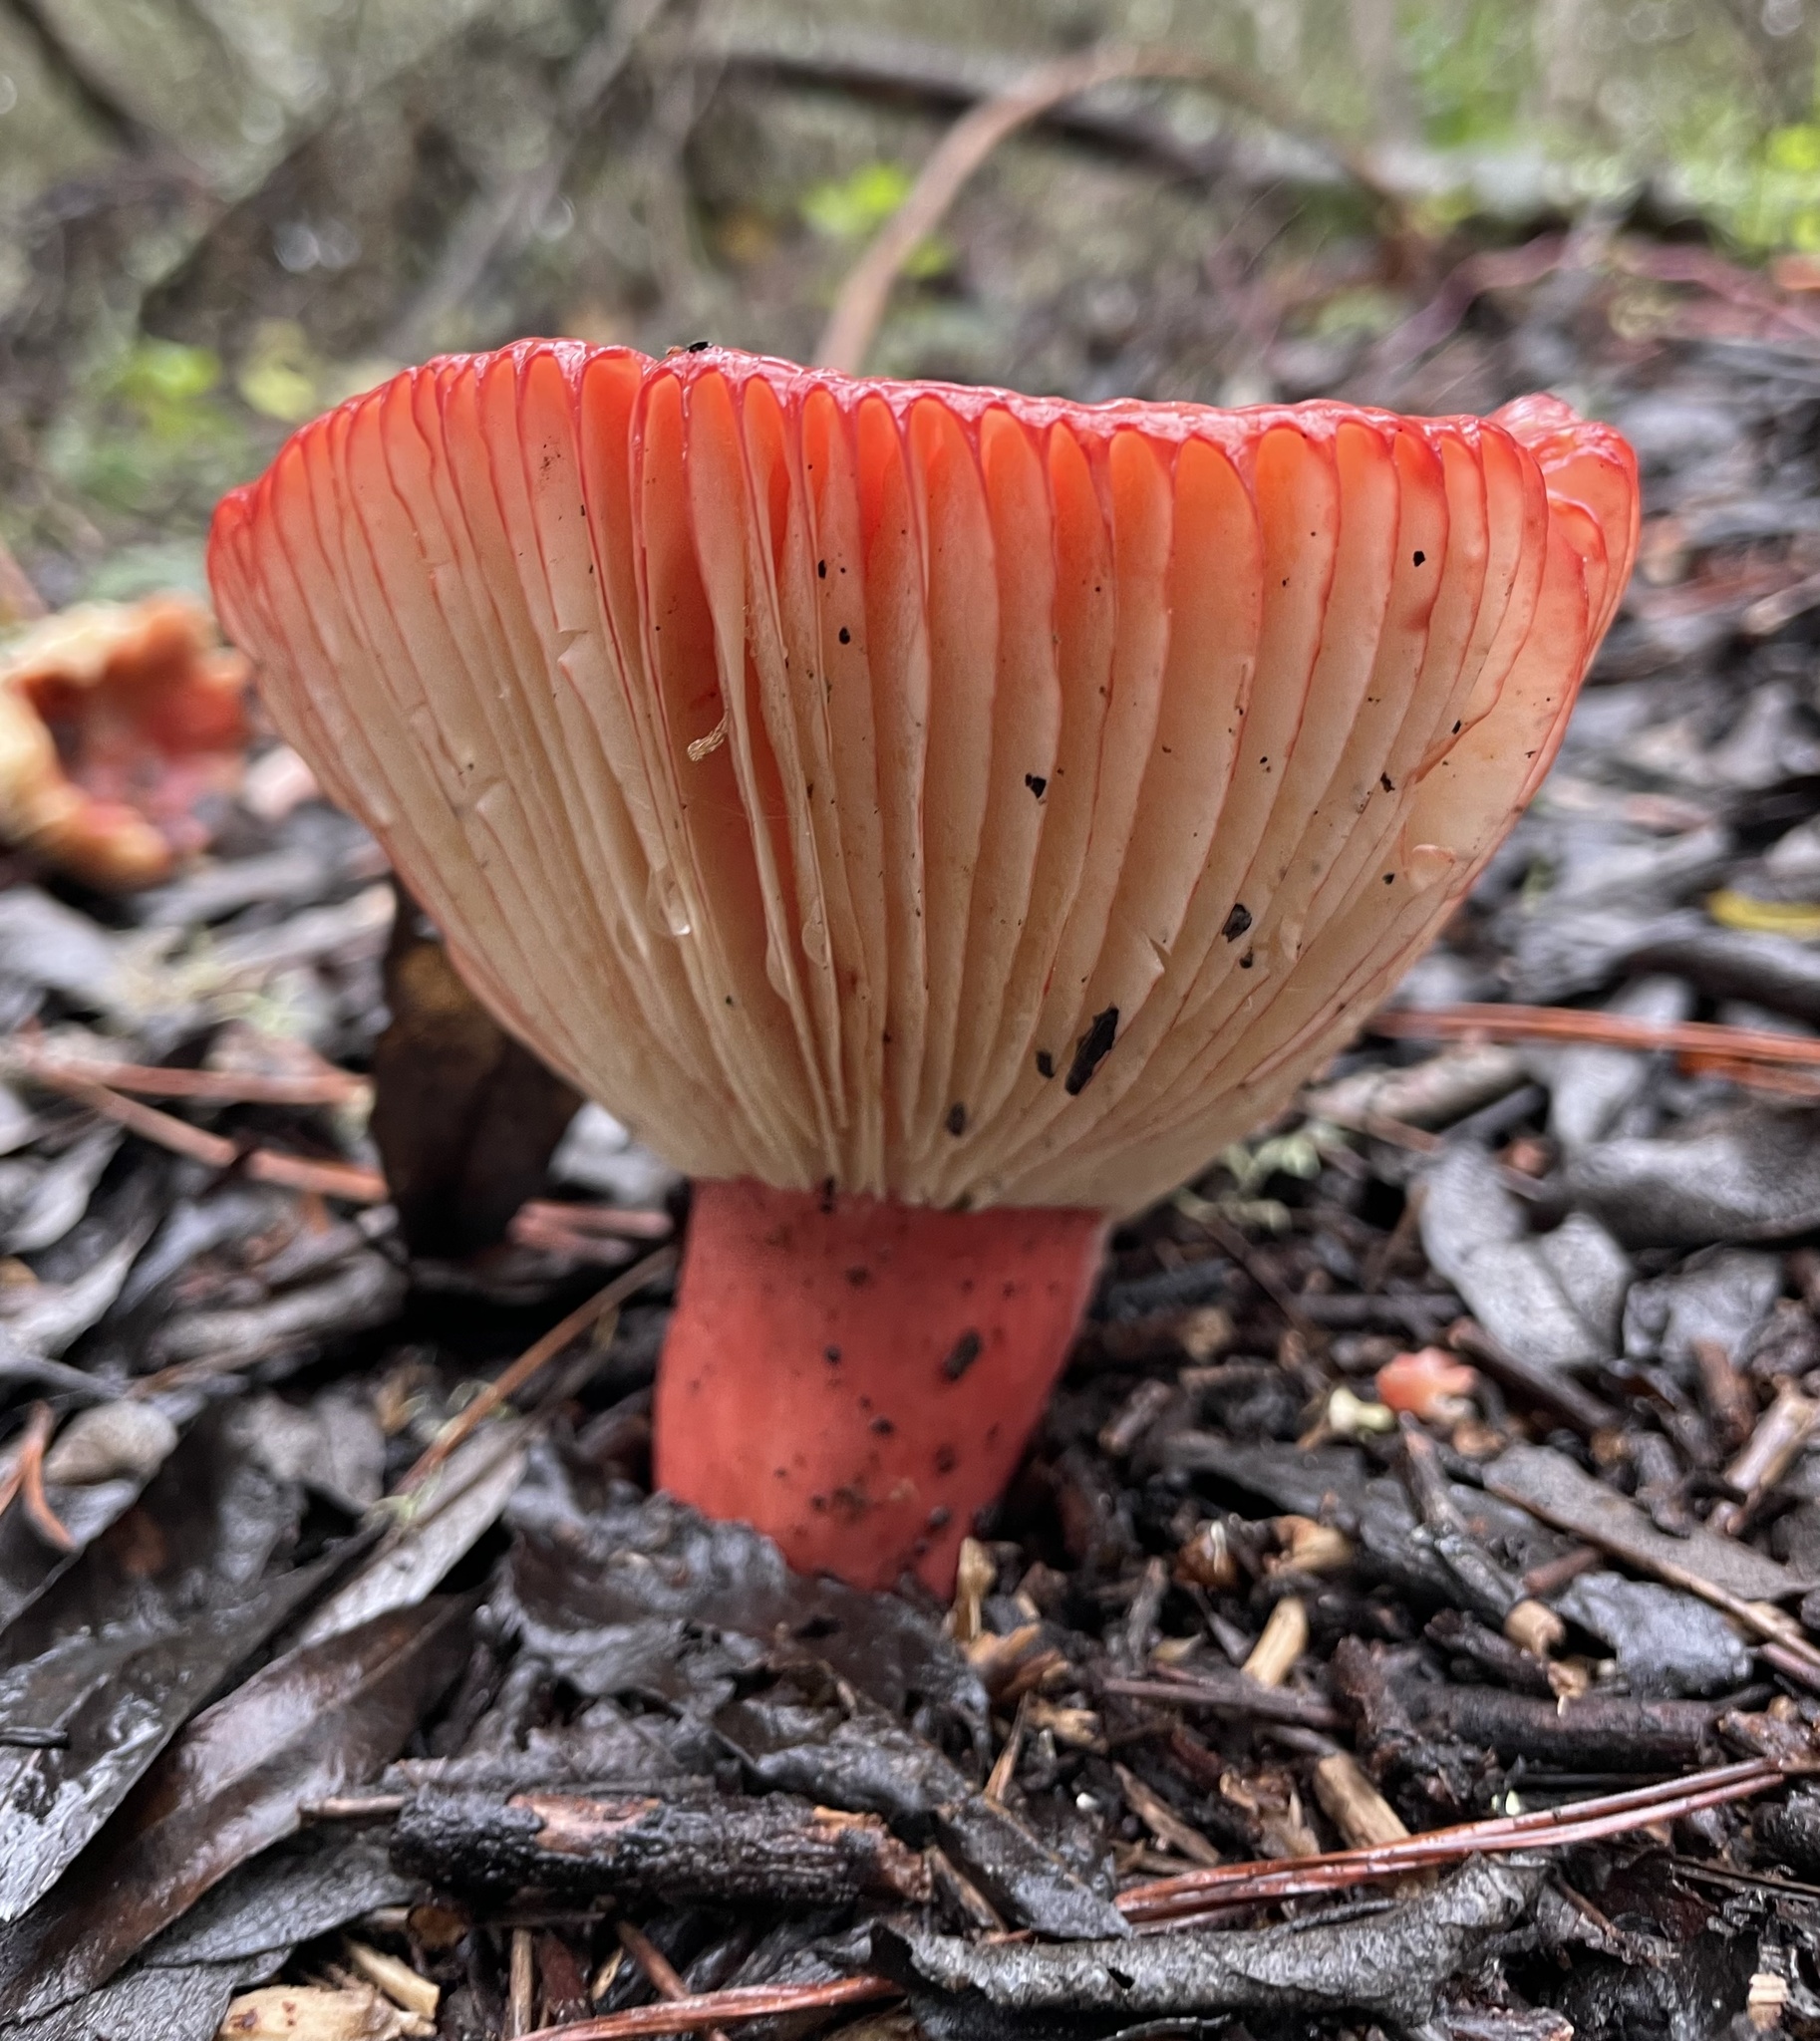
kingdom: Fungi
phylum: Basidiomycota
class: Agaricomycetes
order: Russulales
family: Russulaceae
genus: Russula
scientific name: Russula rhodocephala
